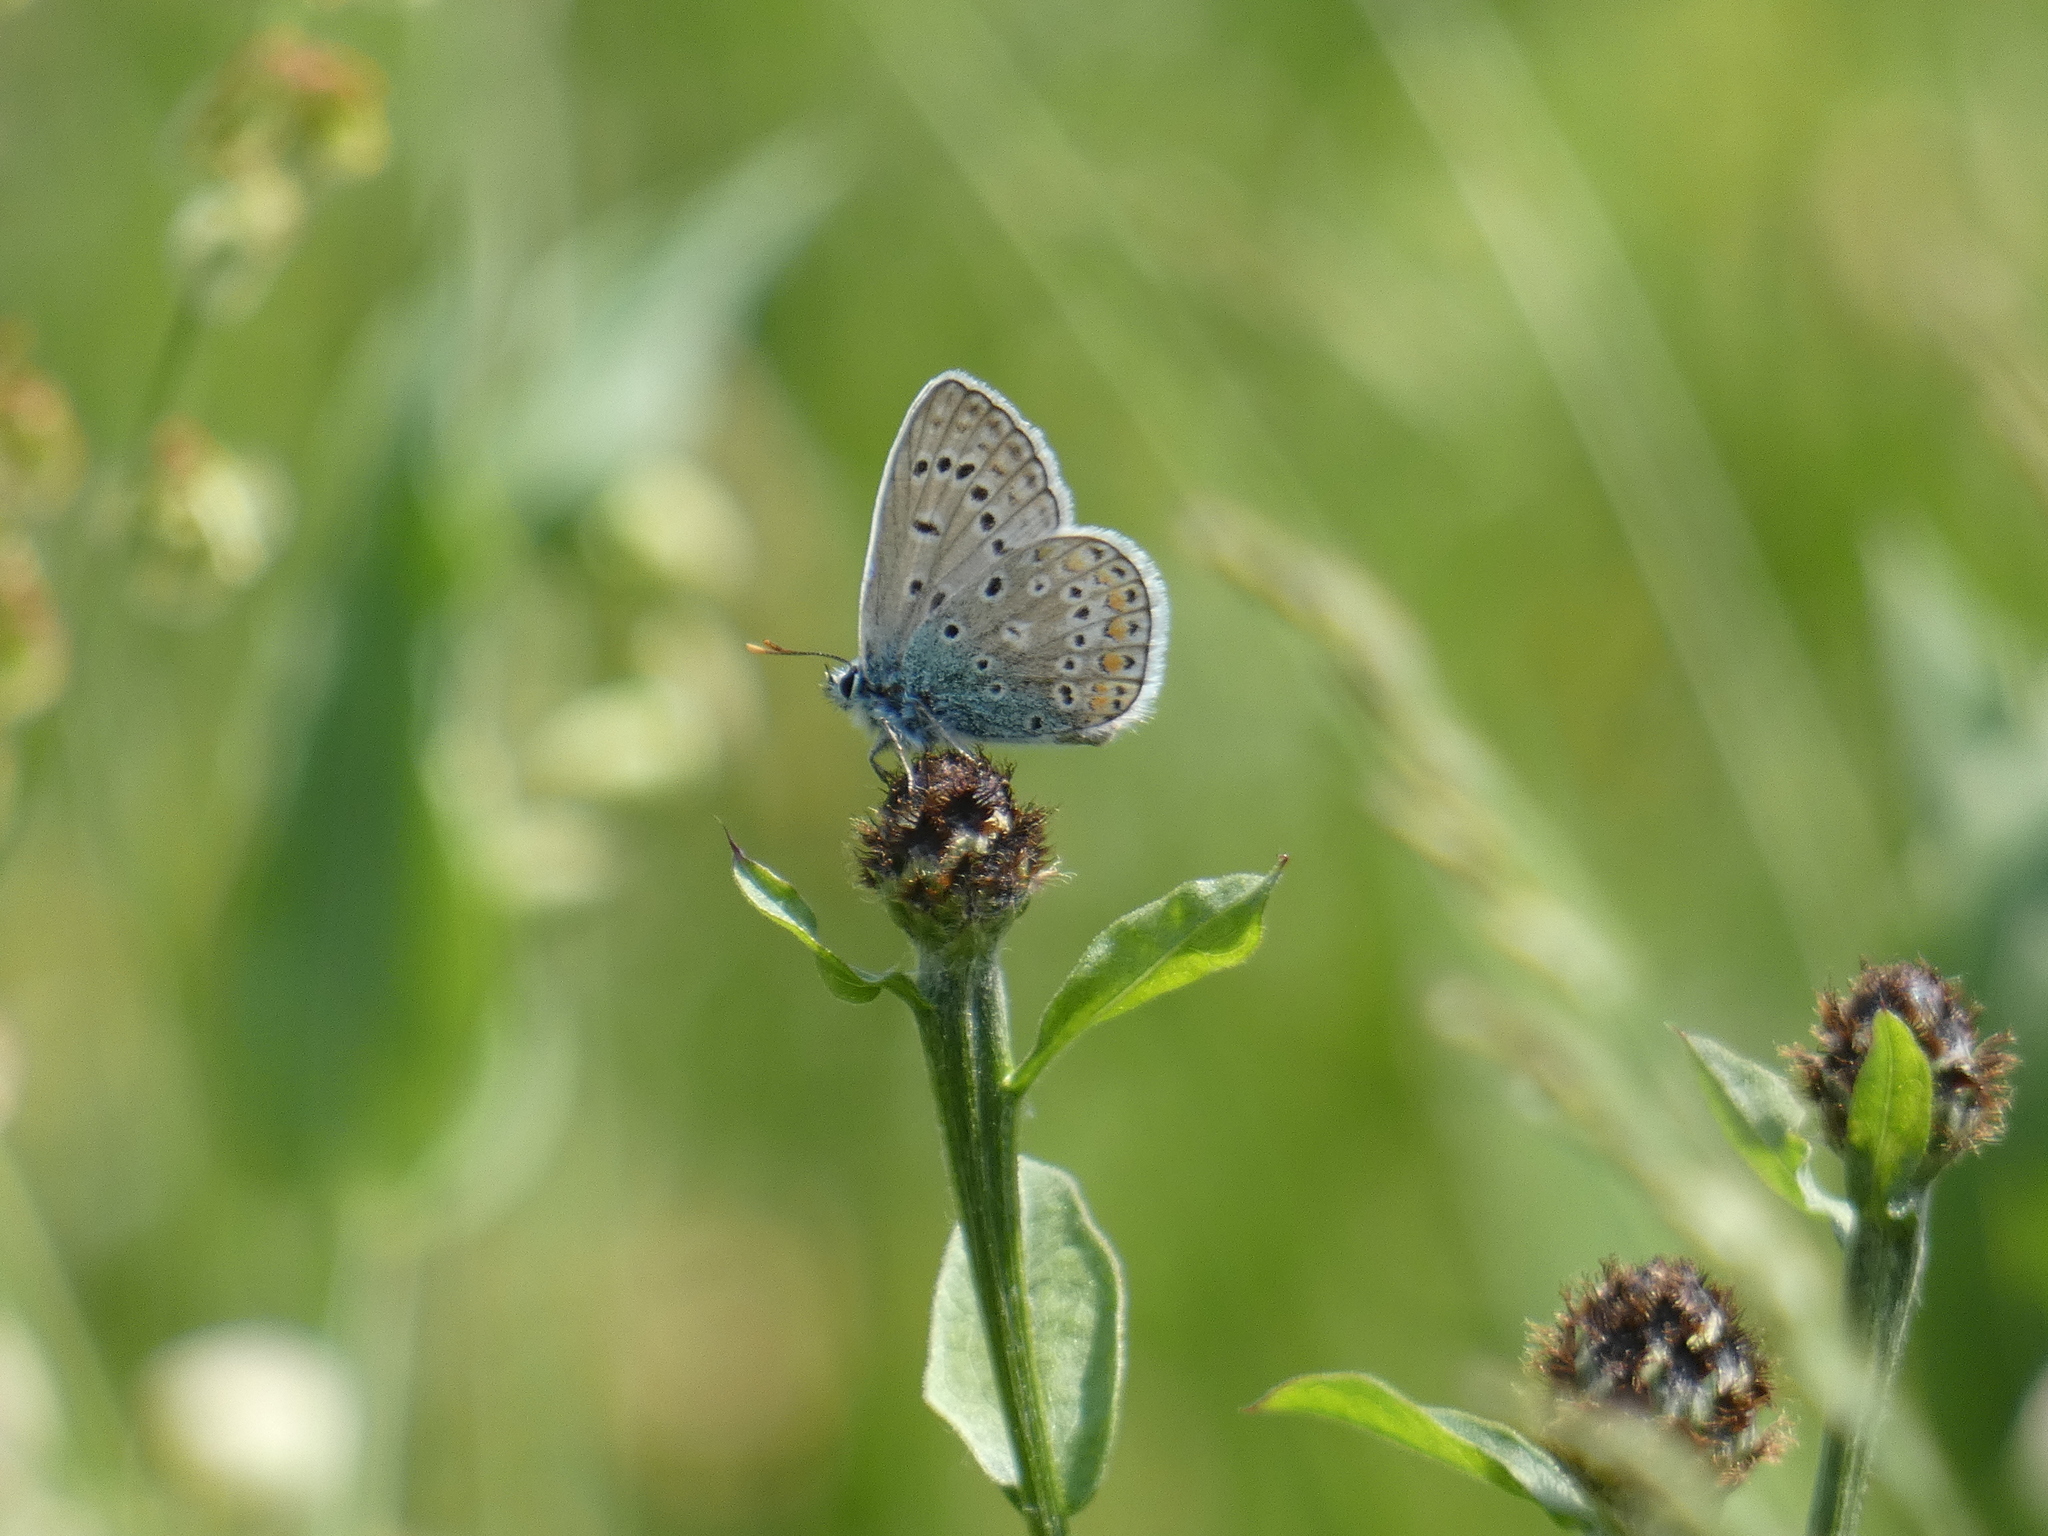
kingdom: Animalia
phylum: Arthropoda
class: Insecta
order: Lepidoptera
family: Lycaenidae
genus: Polyommatus
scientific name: Polyommatus icarus
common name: Common blue
